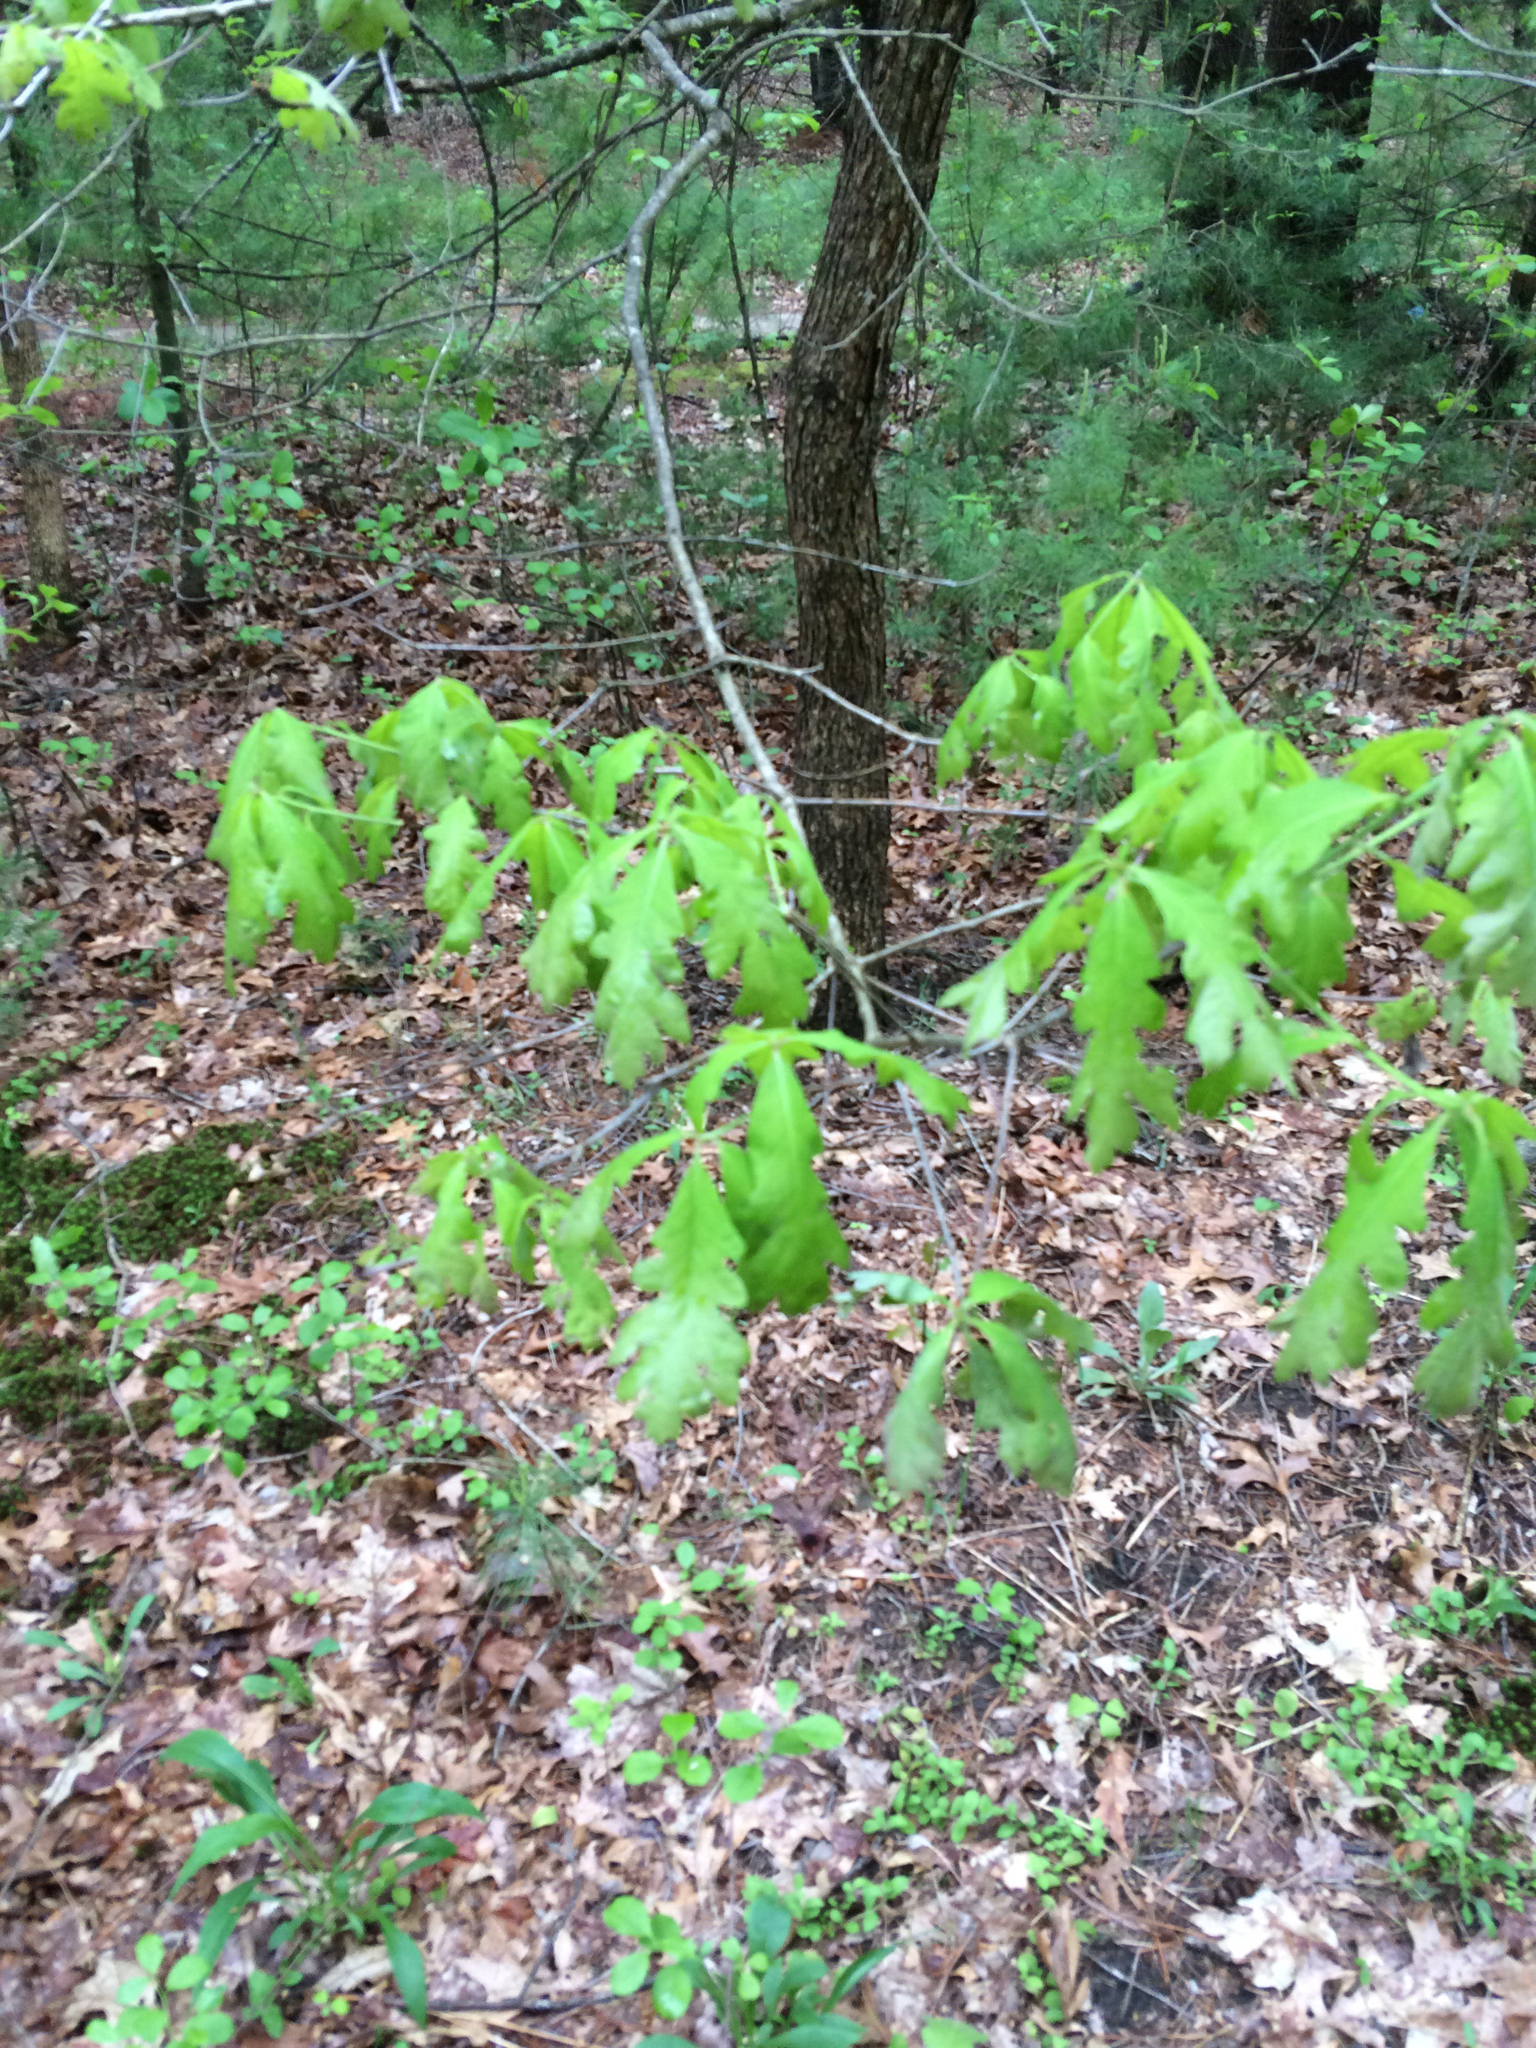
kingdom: Plantae
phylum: Tracheophyta
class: Magnoliopsida
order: Fagales
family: Fagaceae
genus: Quercus
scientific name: Quercus alba
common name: White oak
